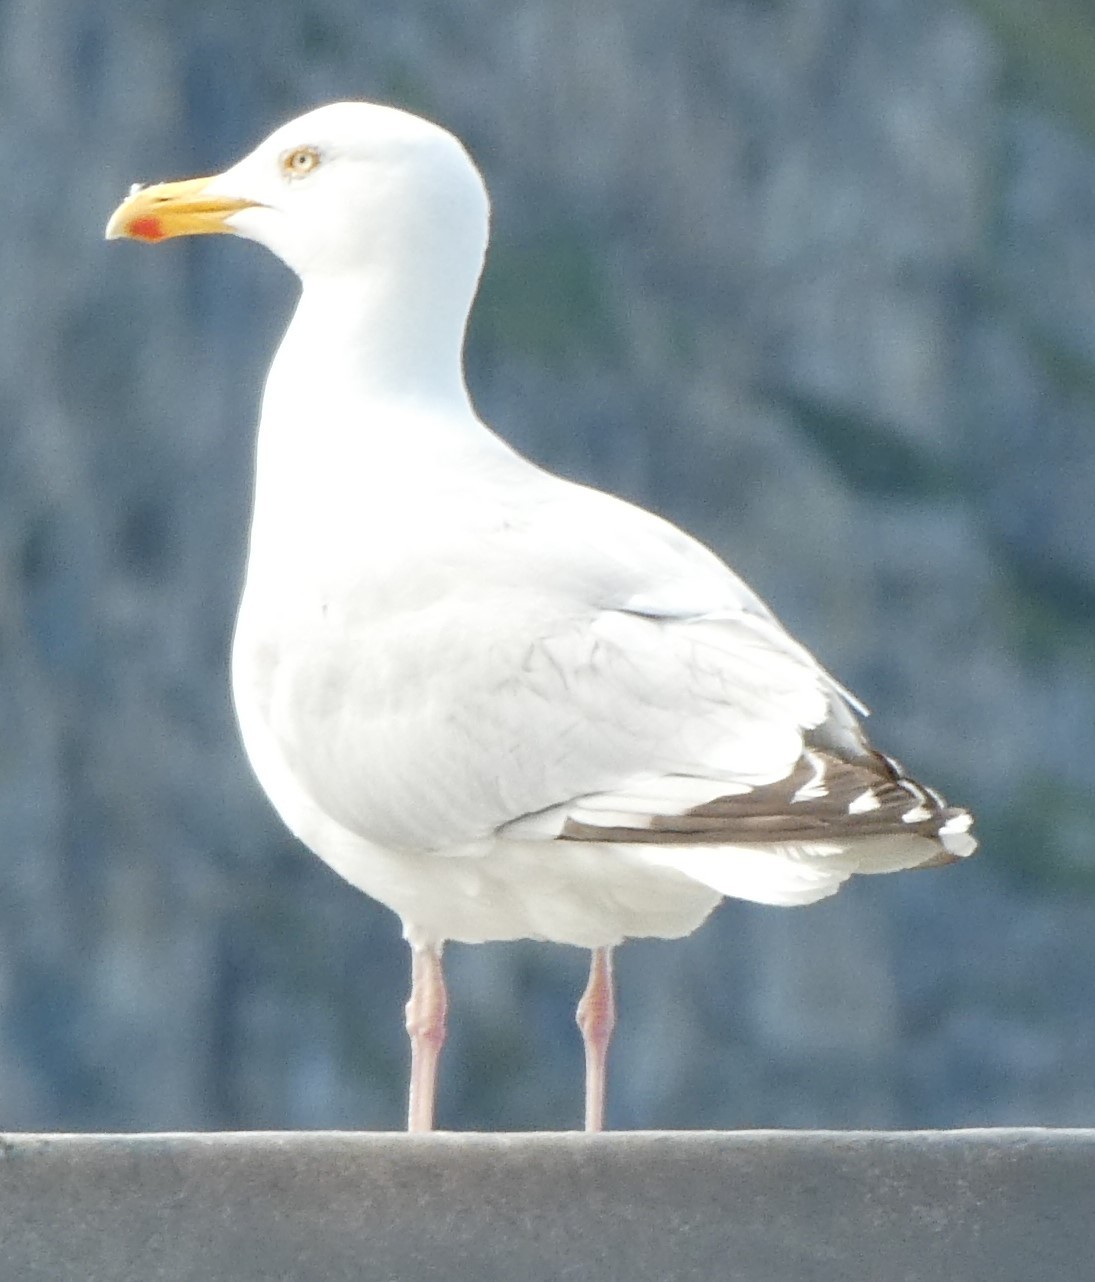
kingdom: Animalia
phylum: Chordata
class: Aves
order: Charadriiformes
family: Laridae
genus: Larus
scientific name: Larus argentatus
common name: Herring gull
